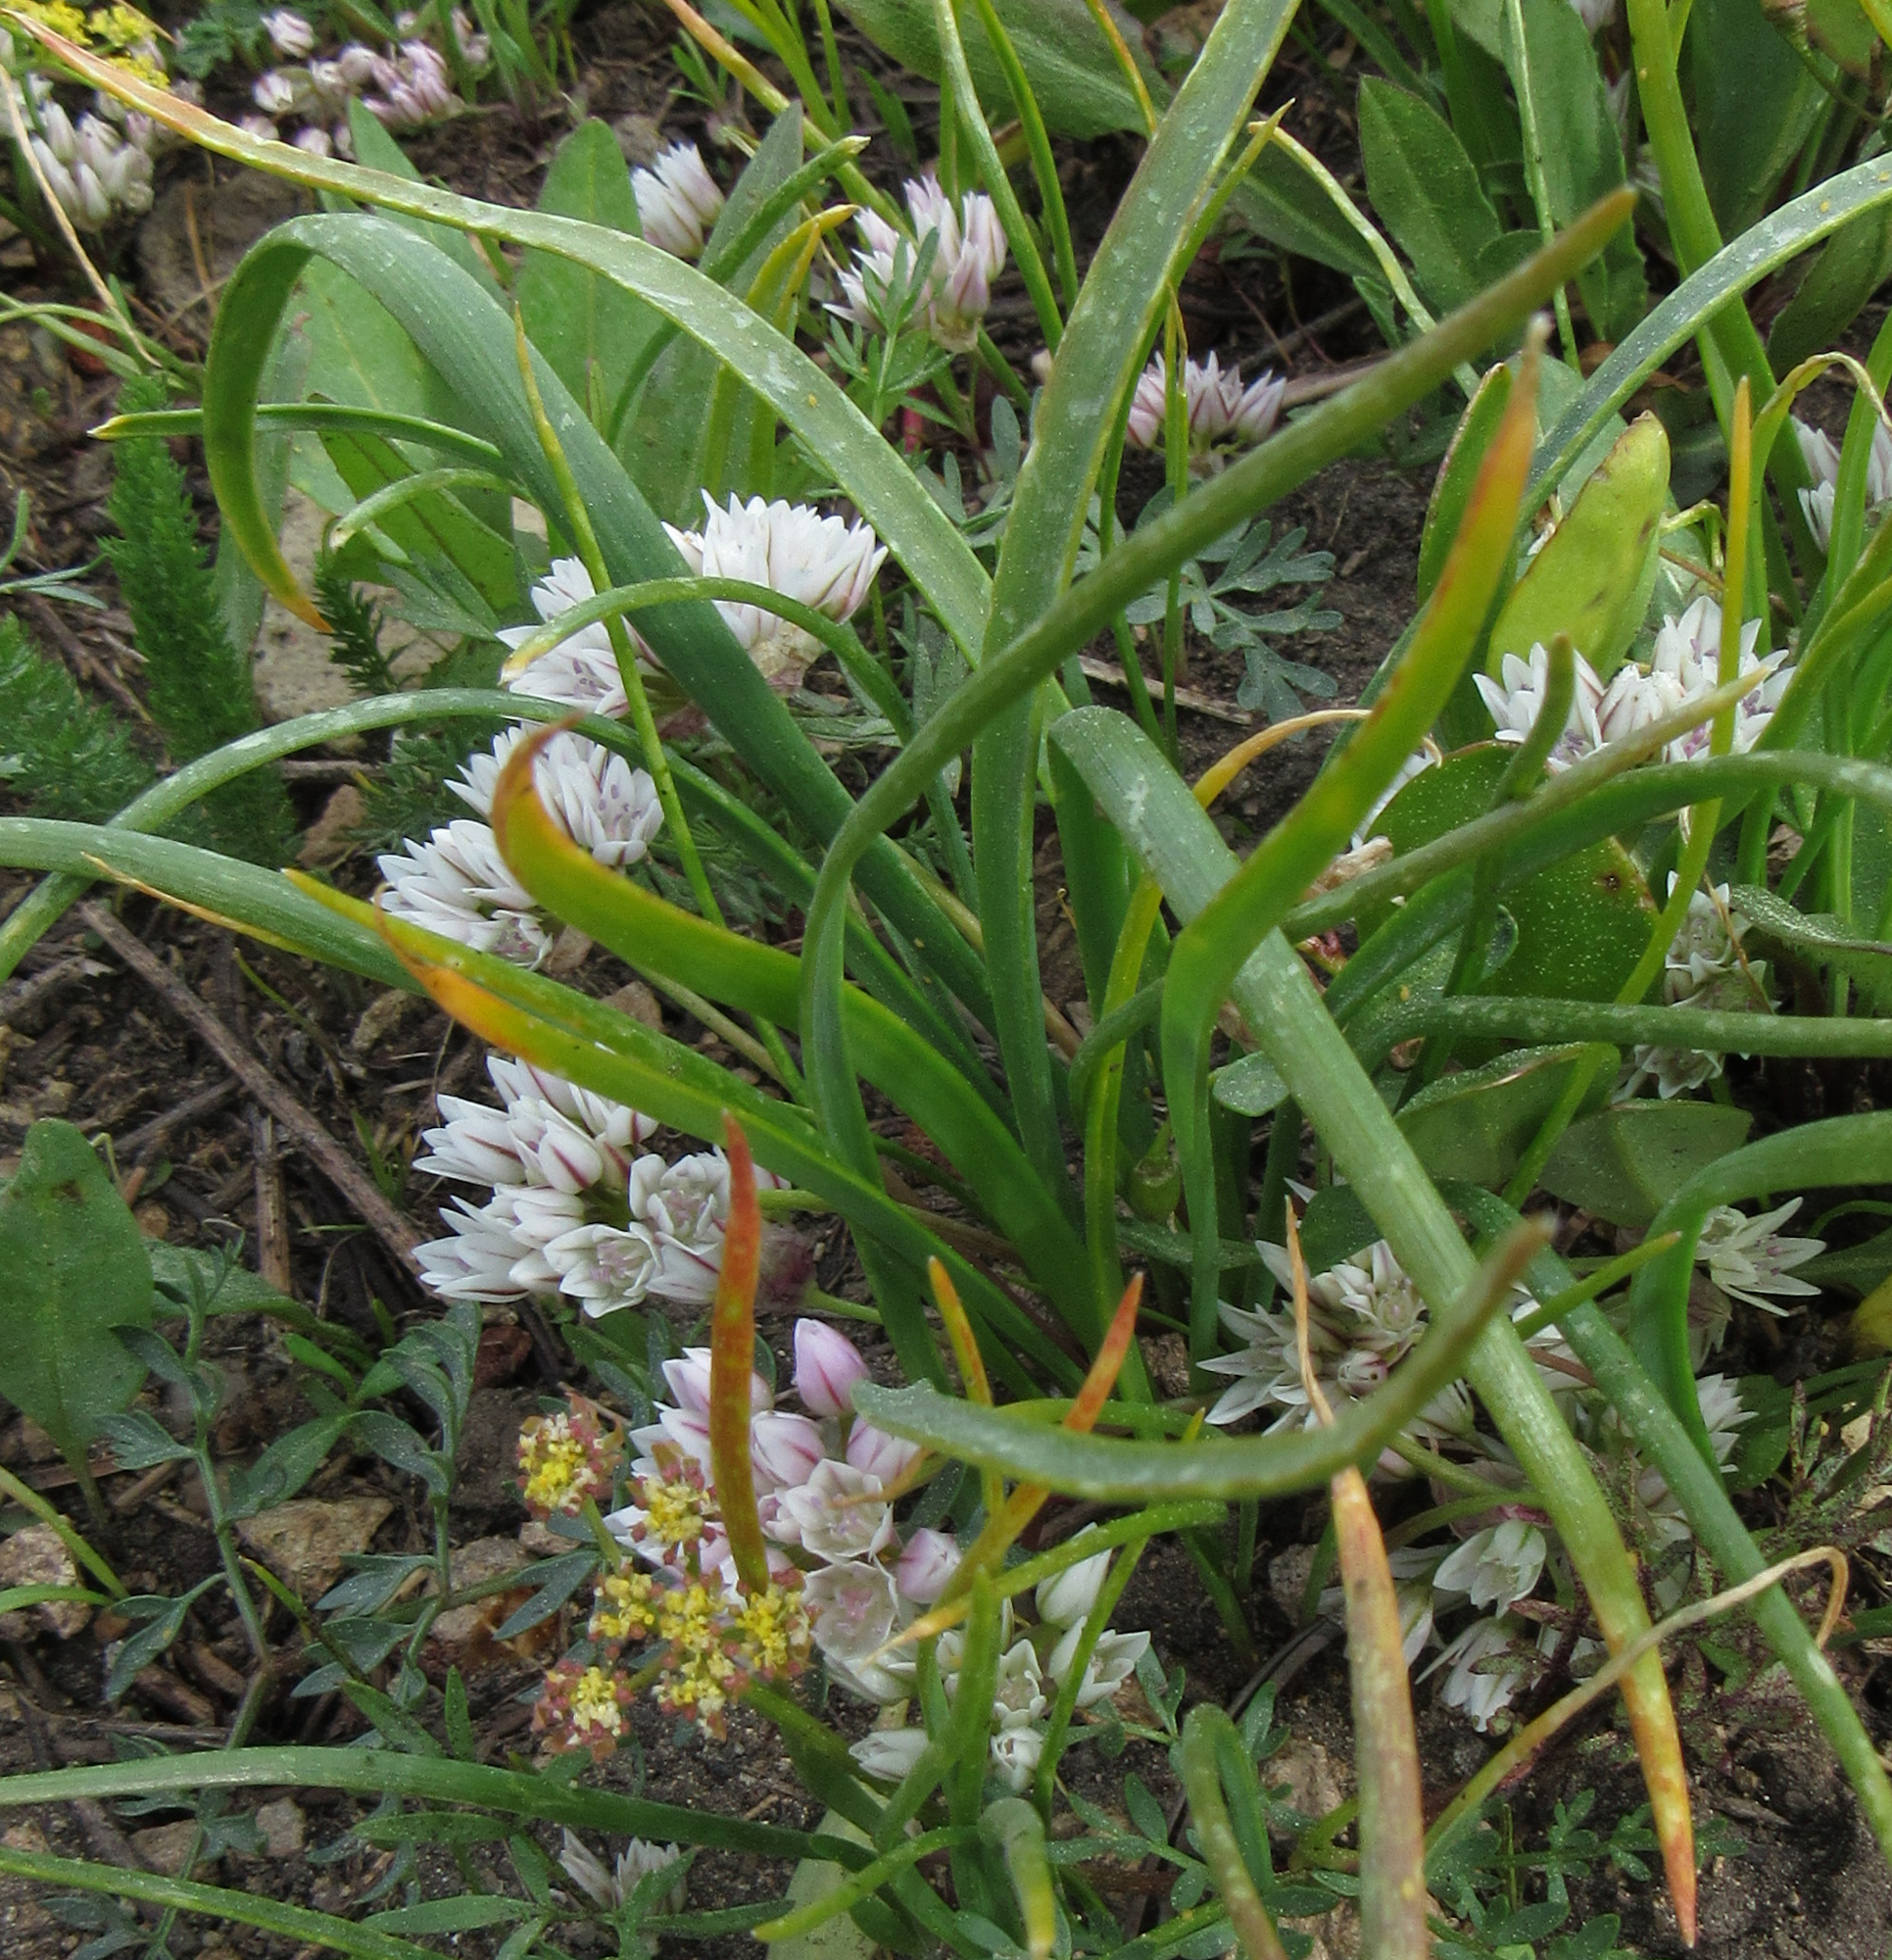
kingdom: Plantae
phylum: Tracheophyta
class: Liliopsida
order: Asparagales
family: Amaryllidaceae
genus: Allium
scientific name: Allium brandegeei
